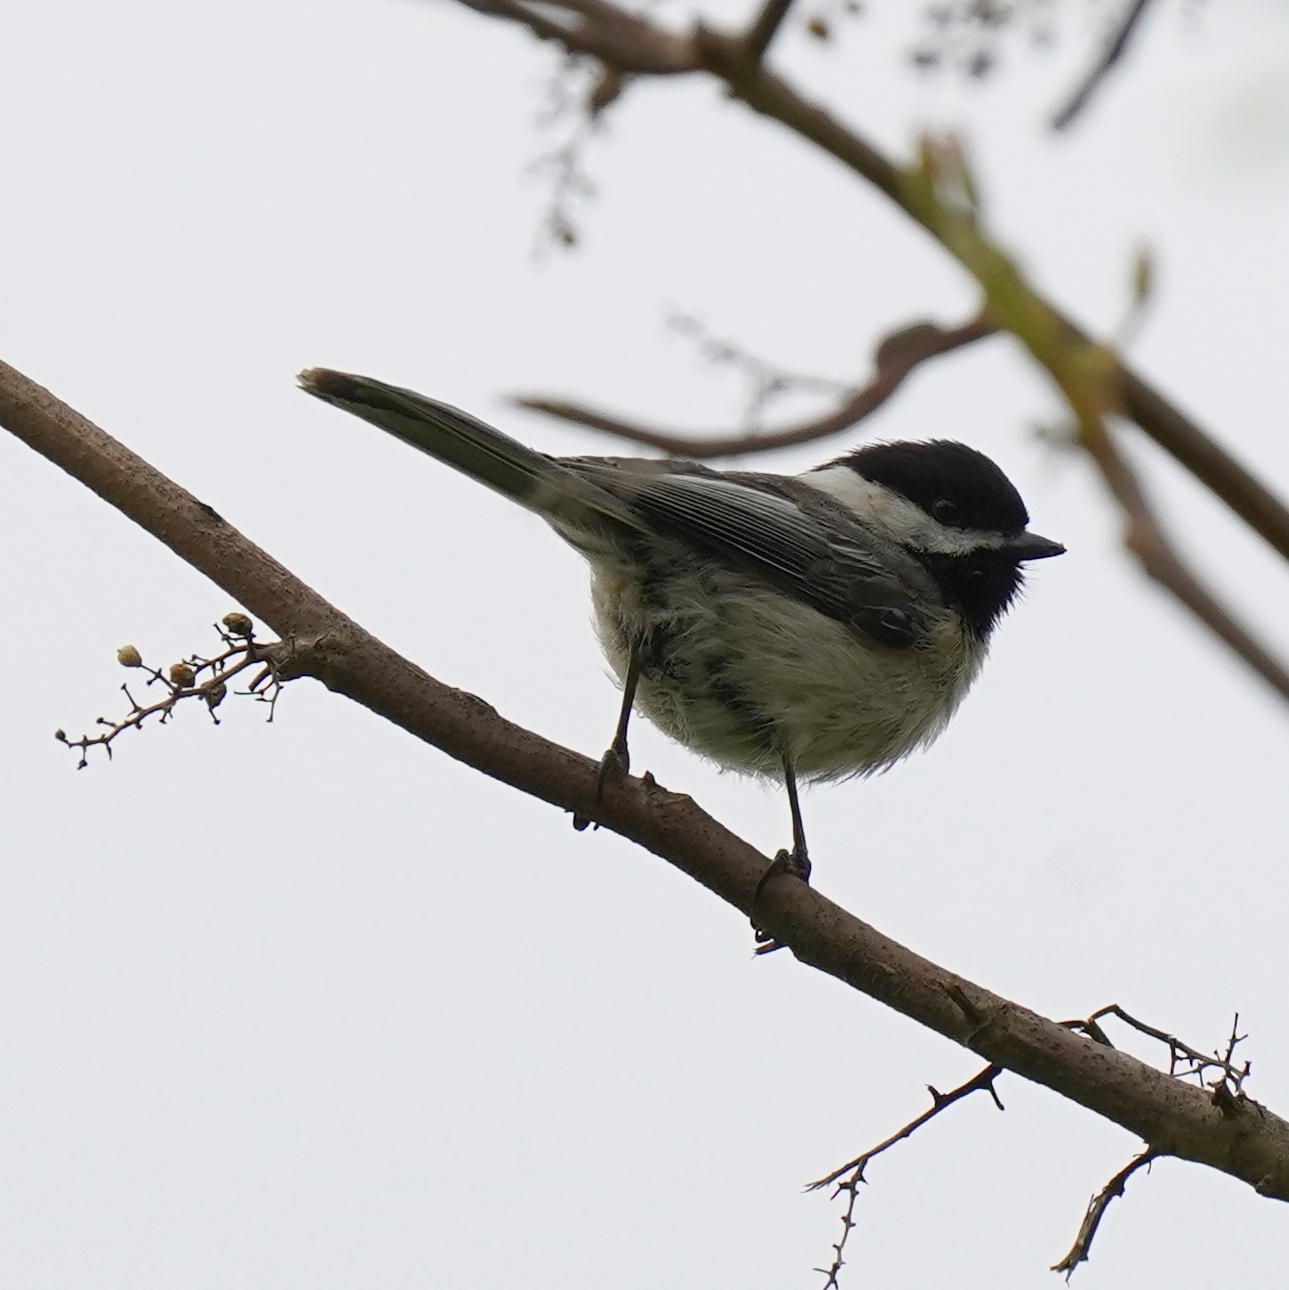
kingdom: Animalia
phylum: Chordata
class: Aves
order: Passeriformes
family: Paridae
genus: Poecile
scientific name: Poecile atricapillus
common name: Black-capped chickadee
